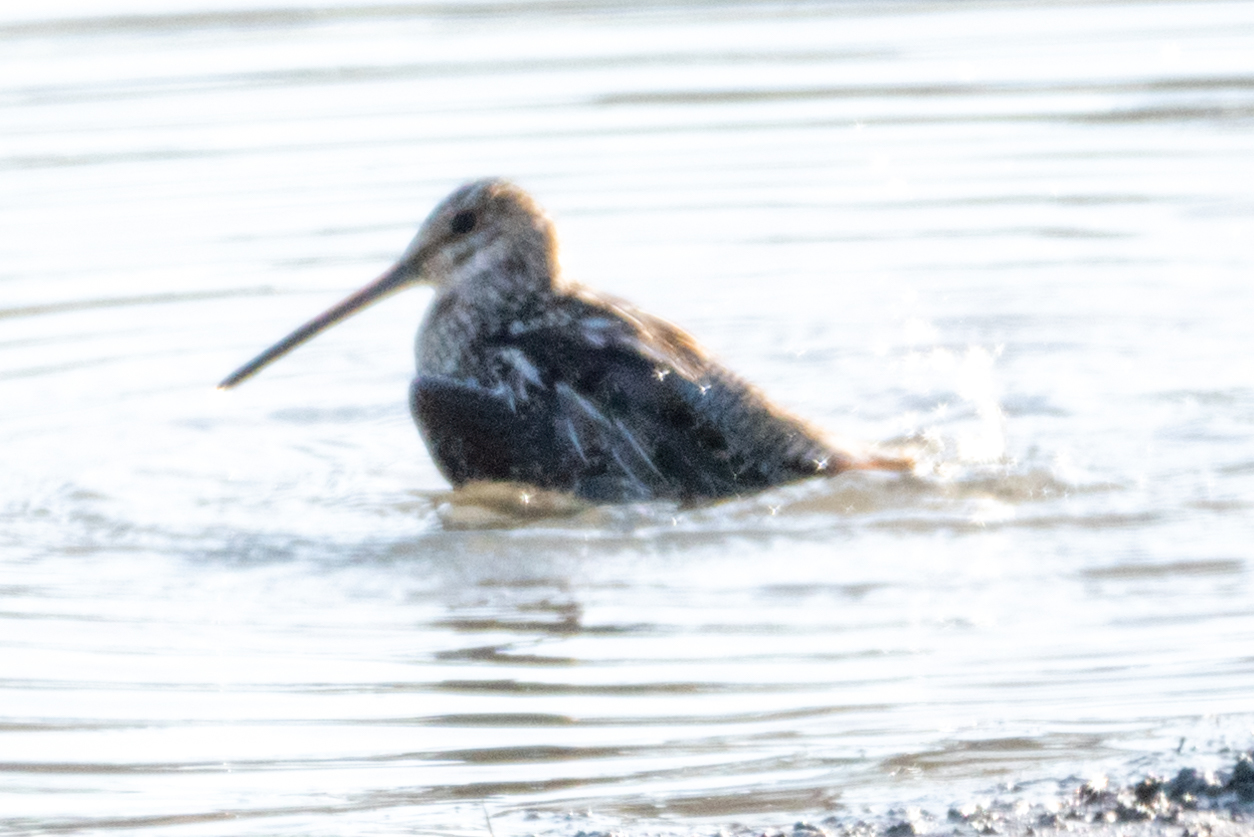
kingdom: Animalia
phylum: Chordata
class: Aves
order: Charadriiformes
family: Scolopacidae
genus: Gallinago
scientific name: Gallinago delicata
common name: Wilson's snipe
